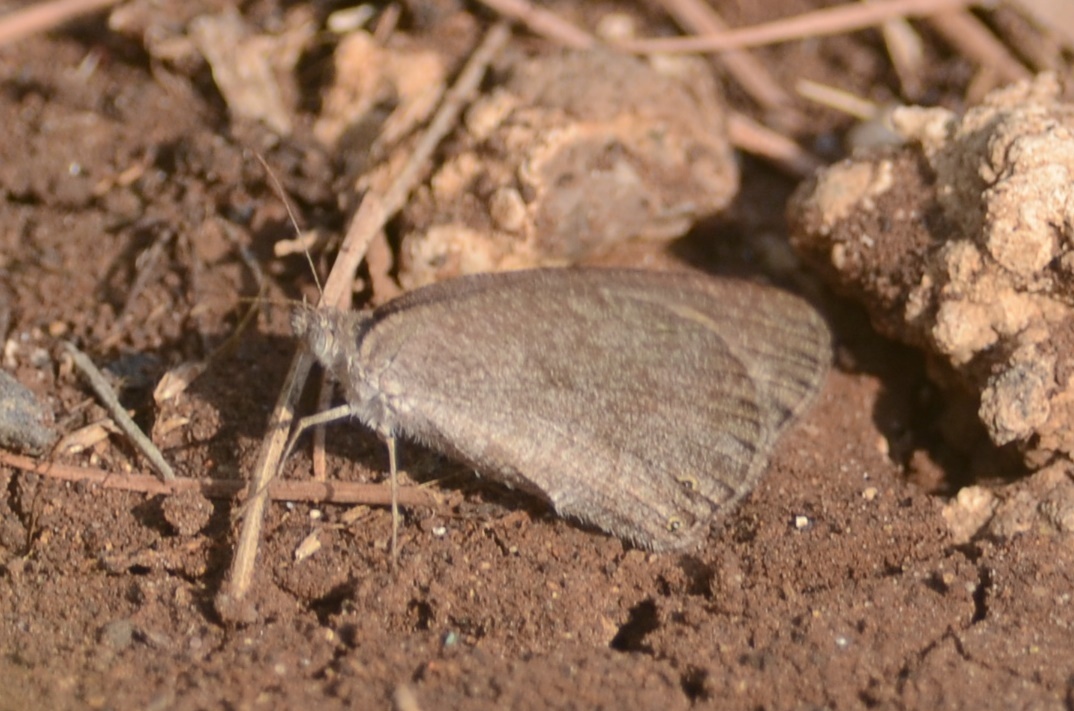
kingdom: Animalia
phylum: Arthropoda
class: Insecta
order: Lepidoptera
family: Nymphalidae
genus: Ypthima
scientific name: Ypthima asterope
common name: African ringlet
